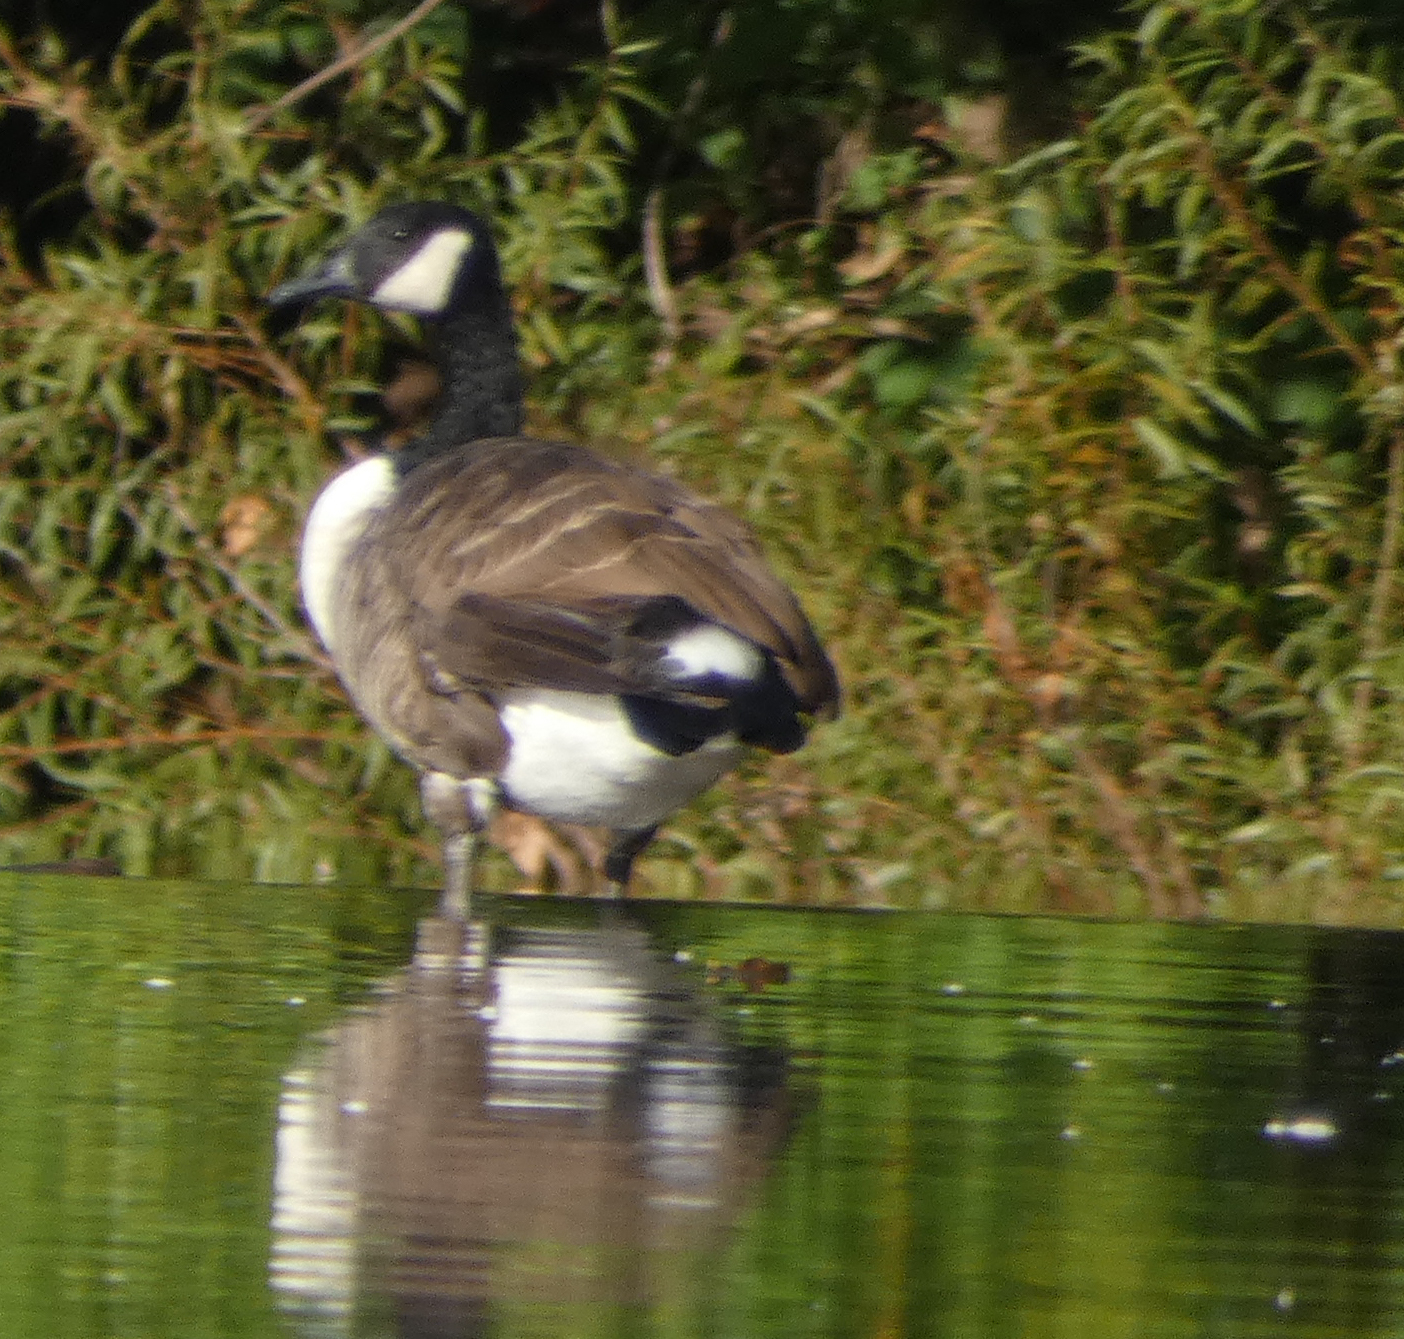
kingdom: Animalia
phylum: Chordata
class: Aves
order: Anseriformes
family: Anatidae
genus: Branta
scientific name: Branta canadensis
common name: Canada goose
